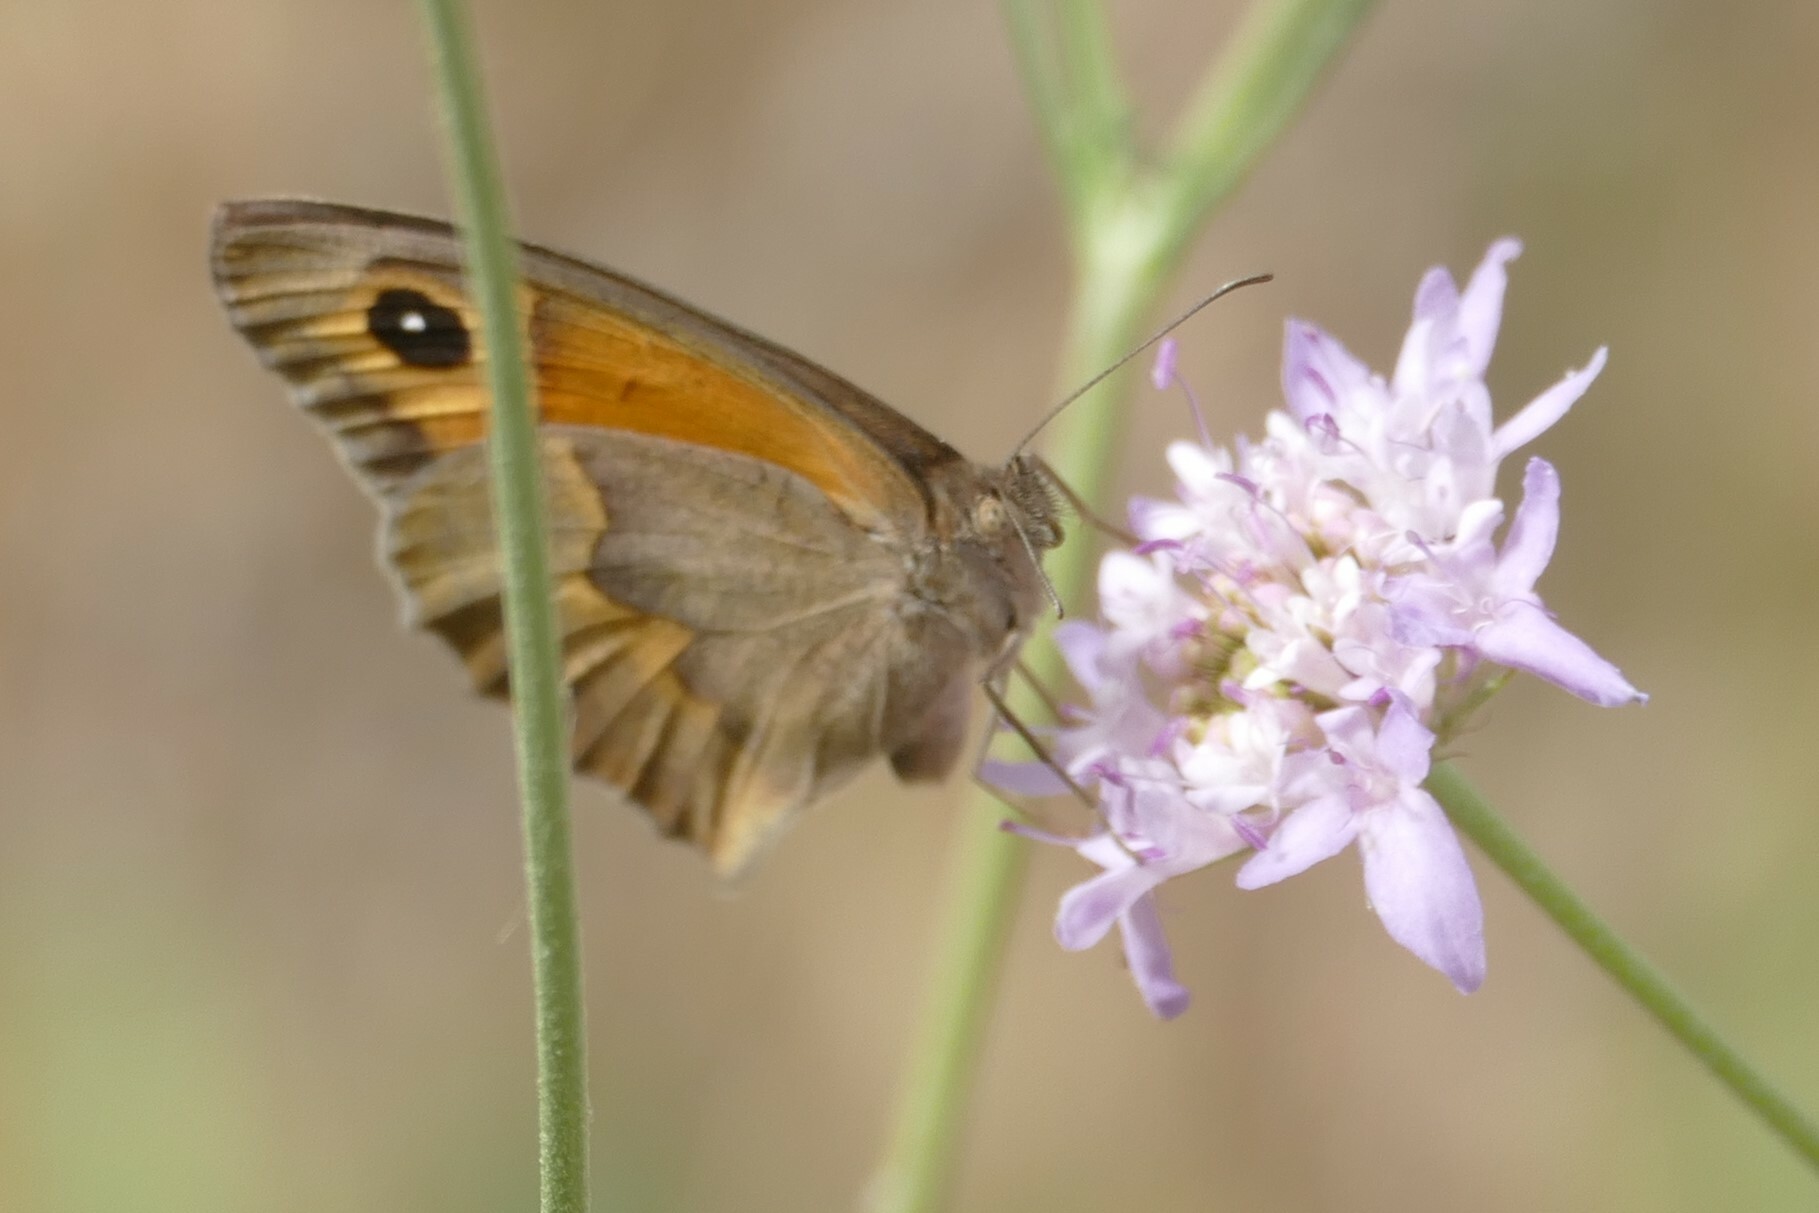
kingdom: Animalia
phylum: Arthropoda
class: Insecta
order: Lepidoptera
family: Nymphalidae
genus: Maniola
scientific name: Maniola jurtina
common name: Meadow brown
